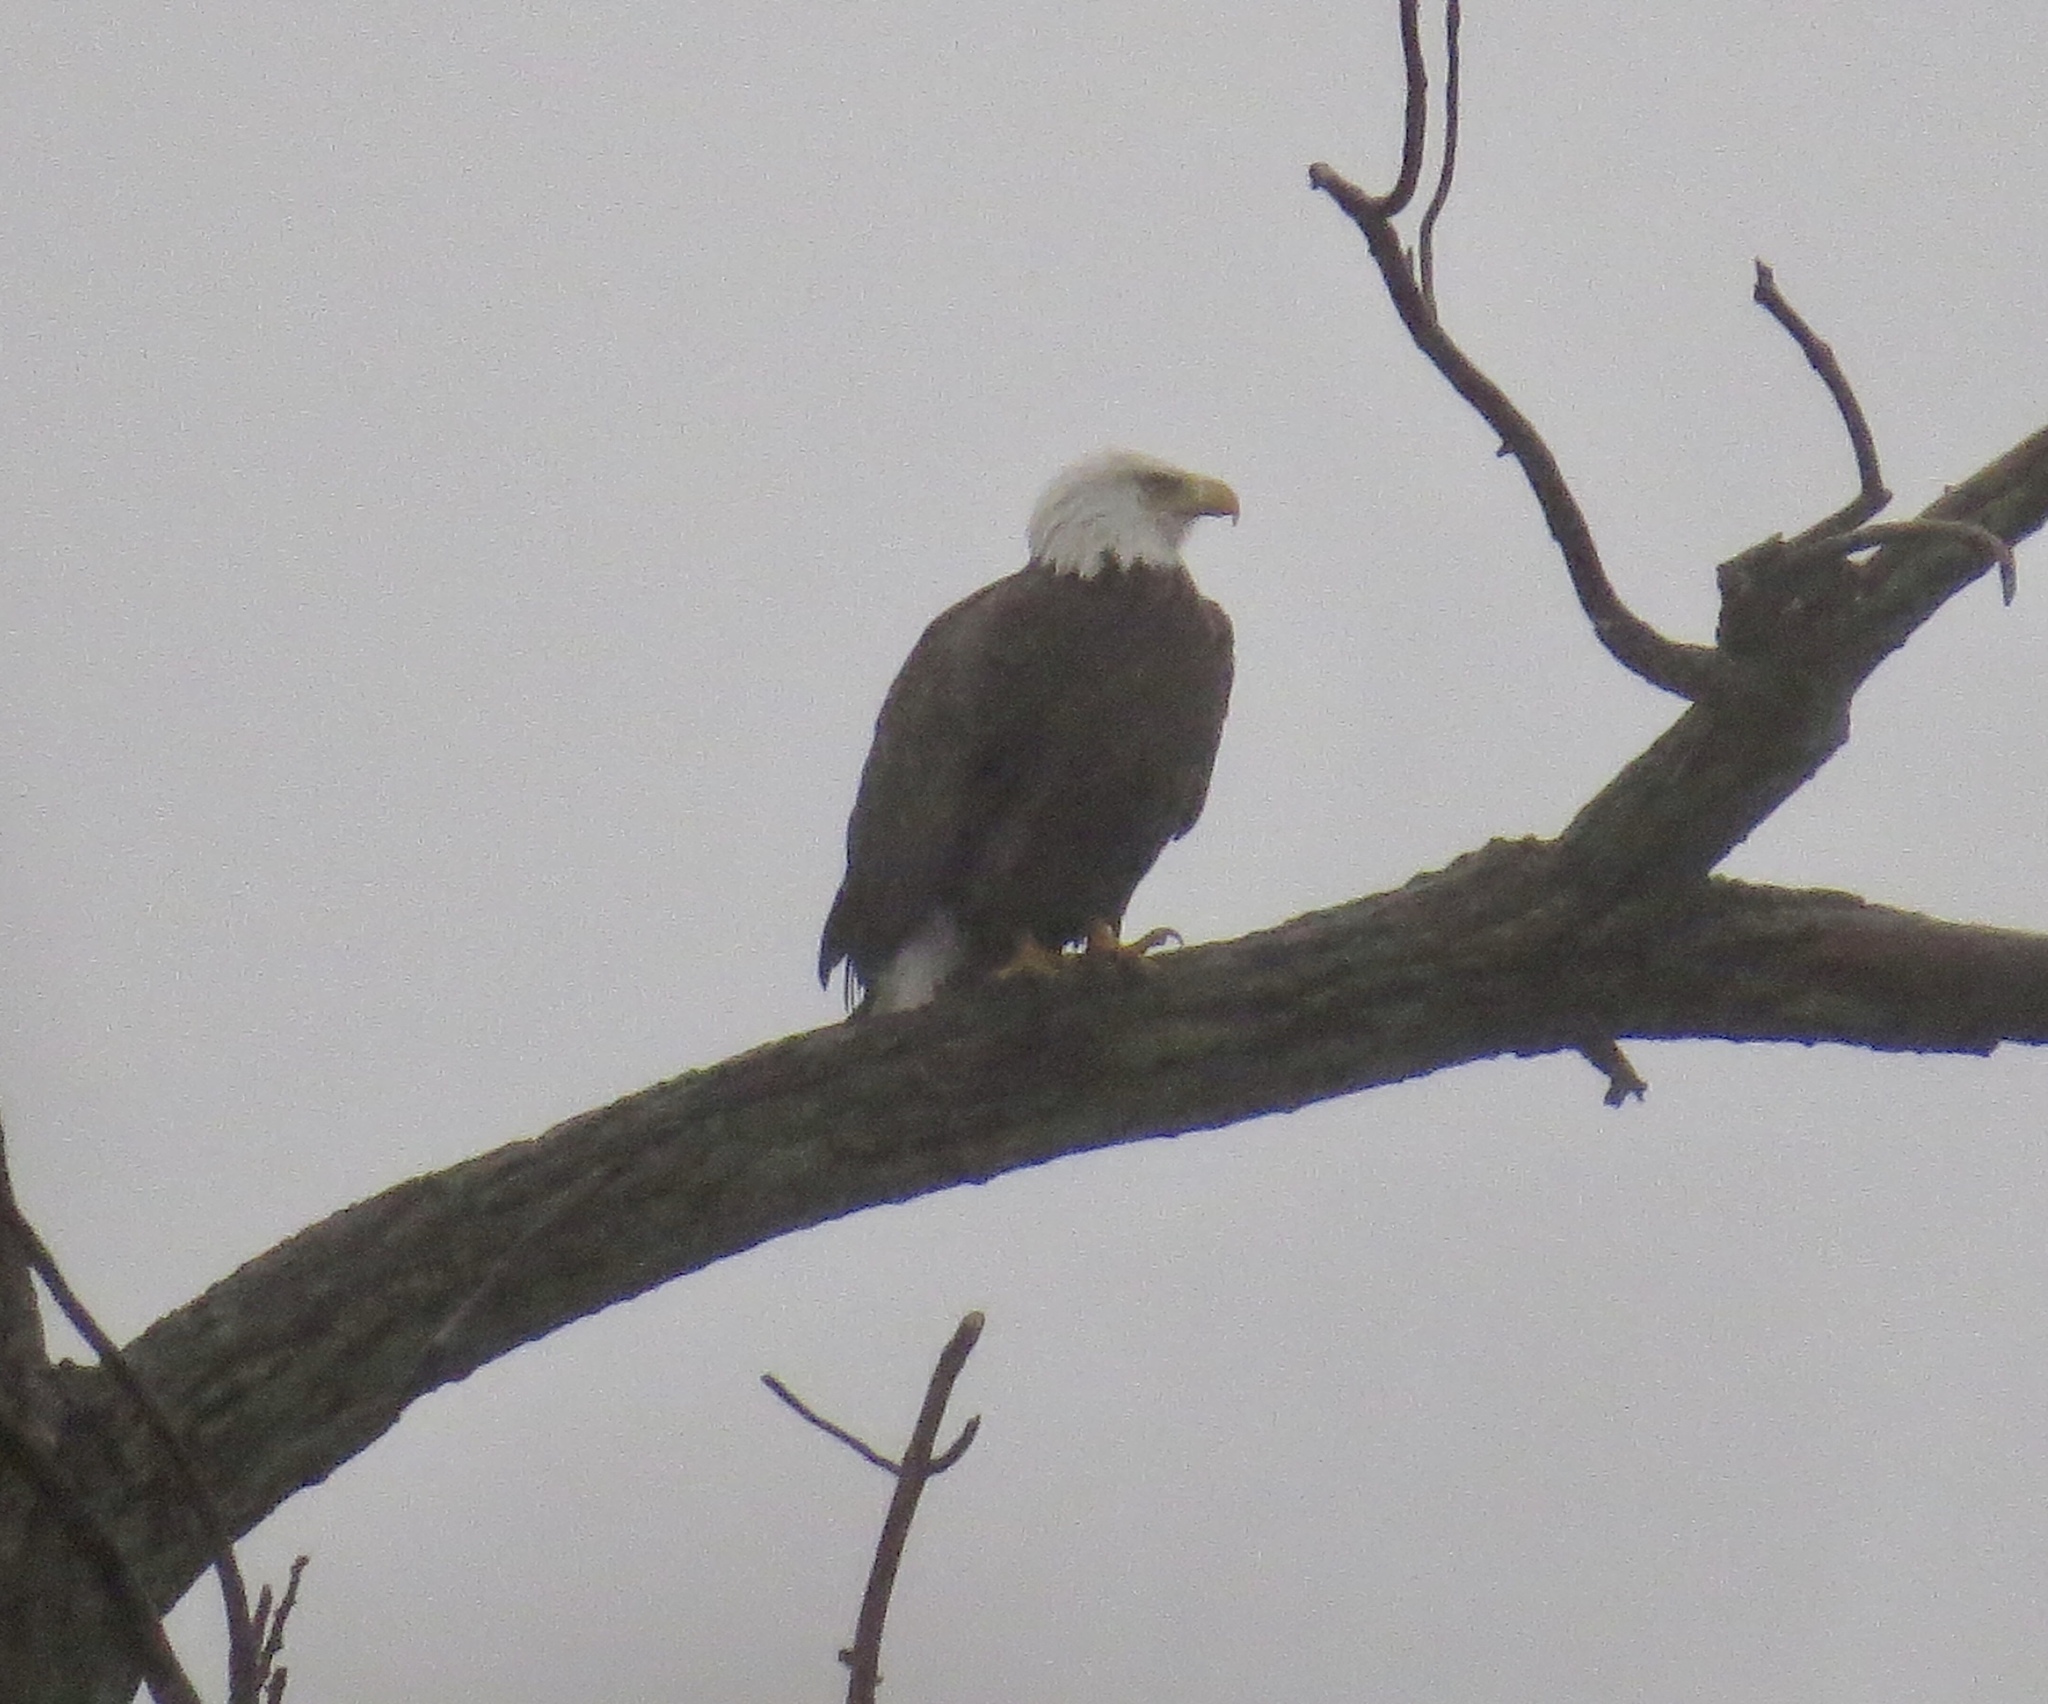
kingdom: Animalia
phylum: Chordata
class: Aves
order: Accipitriformes
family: Accipitridae
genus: Haliaeetus
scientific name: Haliaeetus leucocephalus
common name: Bald eagle
